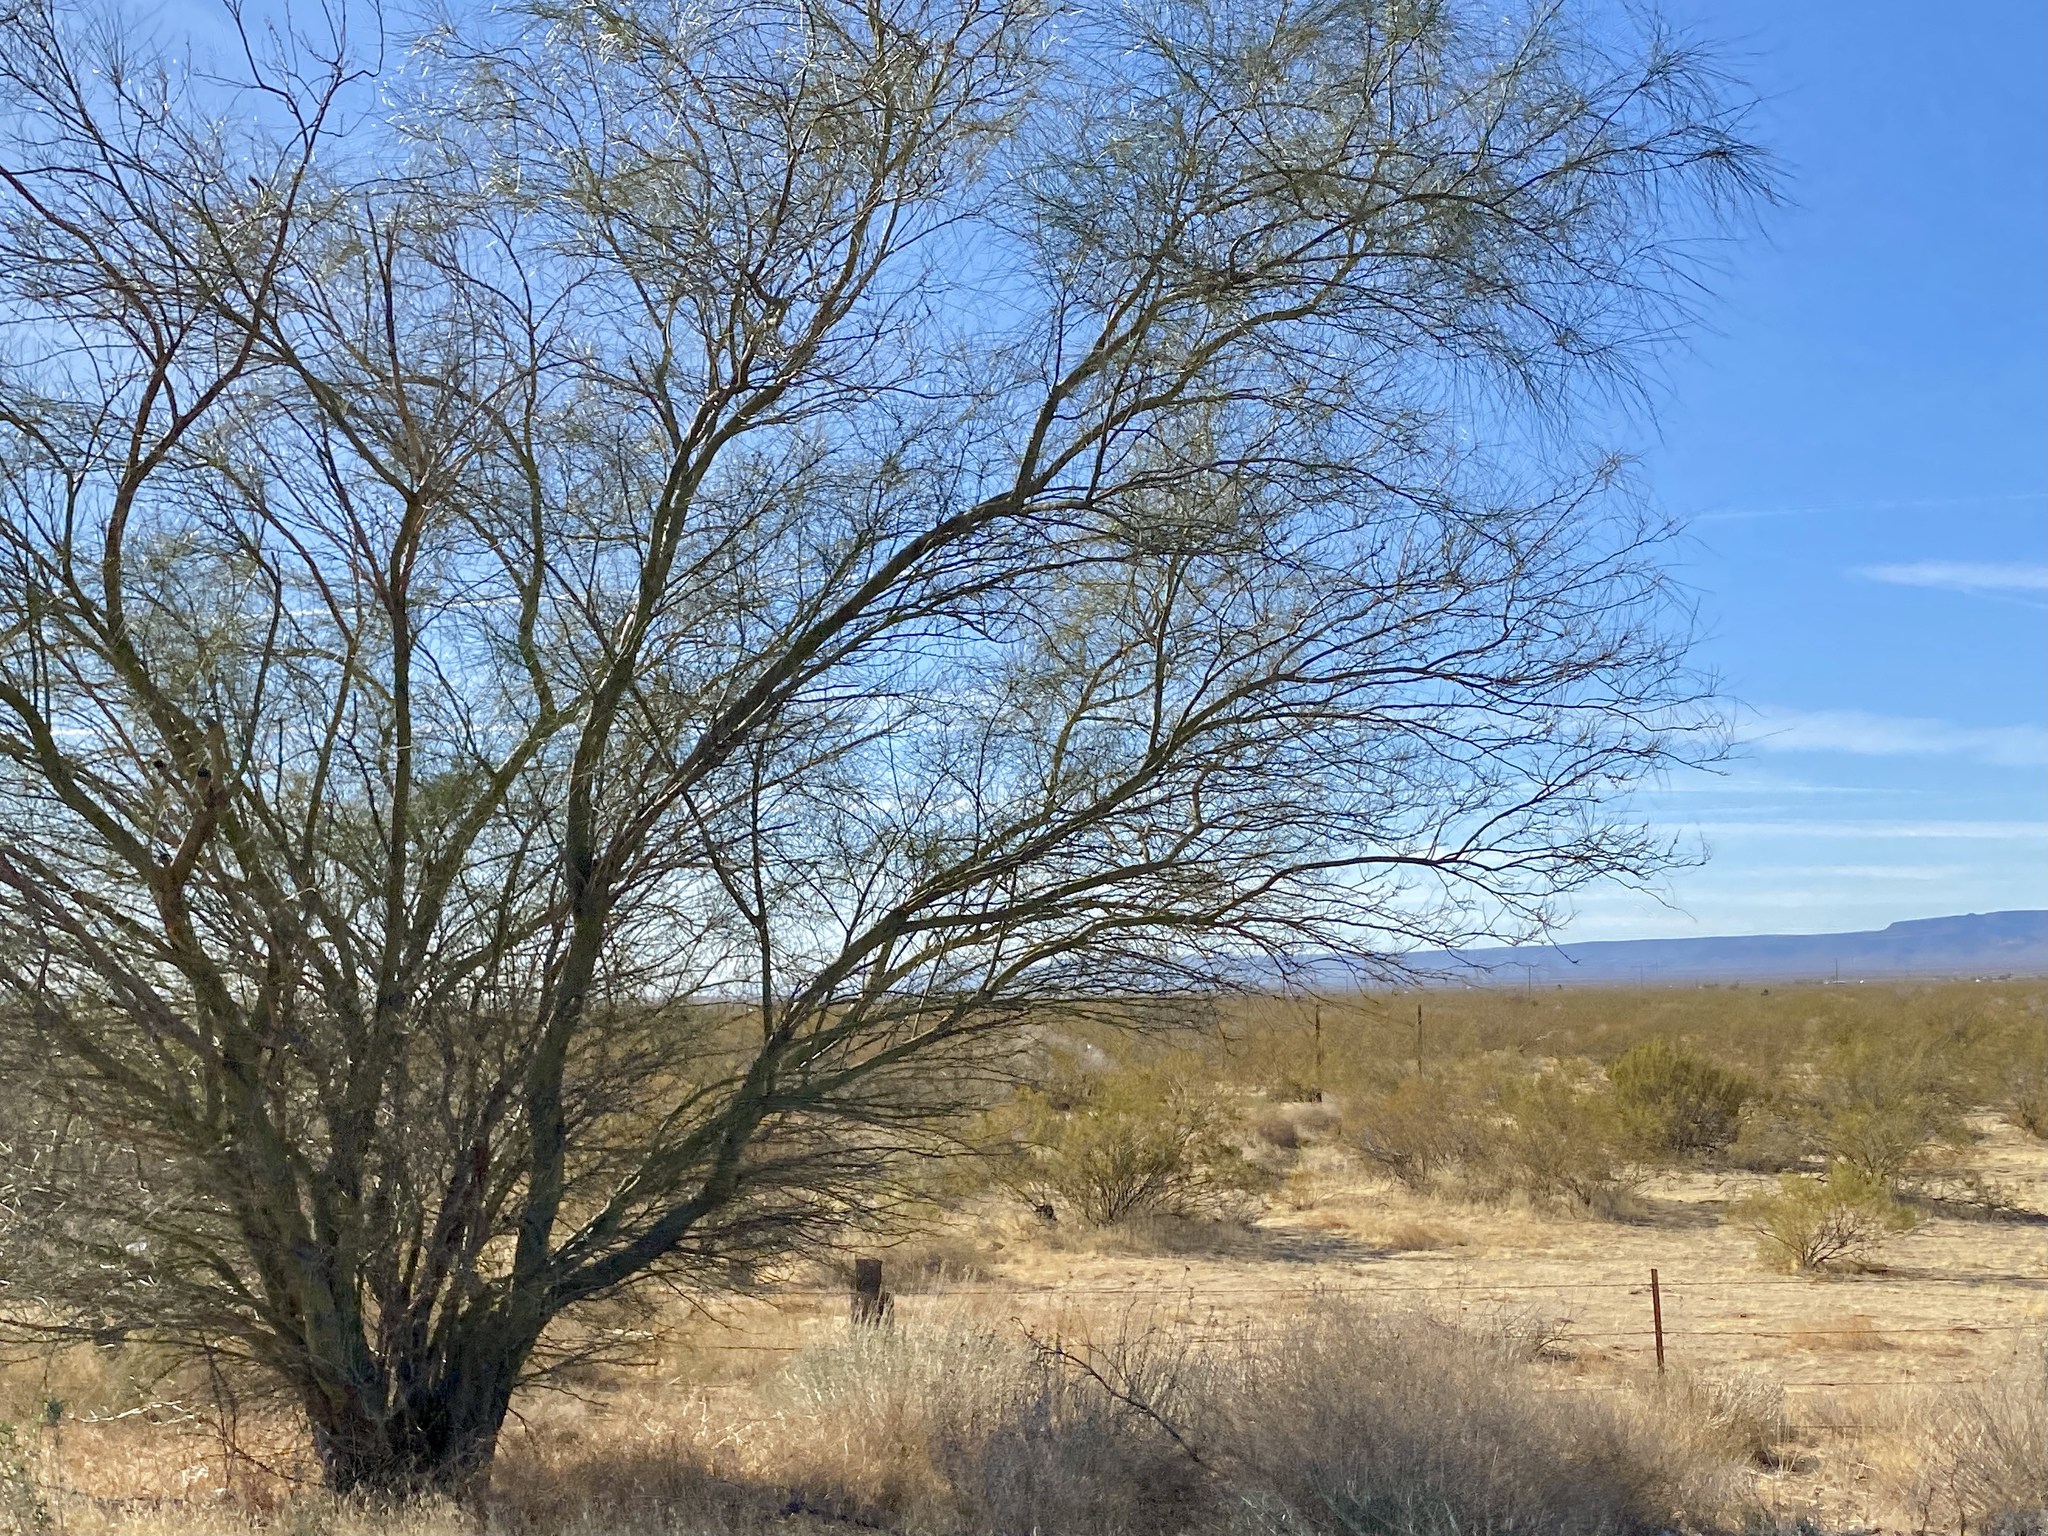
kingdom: Plantae
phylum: Tracheophyta
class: Magnoliopsida
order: Fabales
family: Fabaceae
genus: Parkinsonia
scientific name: Parkinsonia aculeata
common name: Jerusalem thorn
